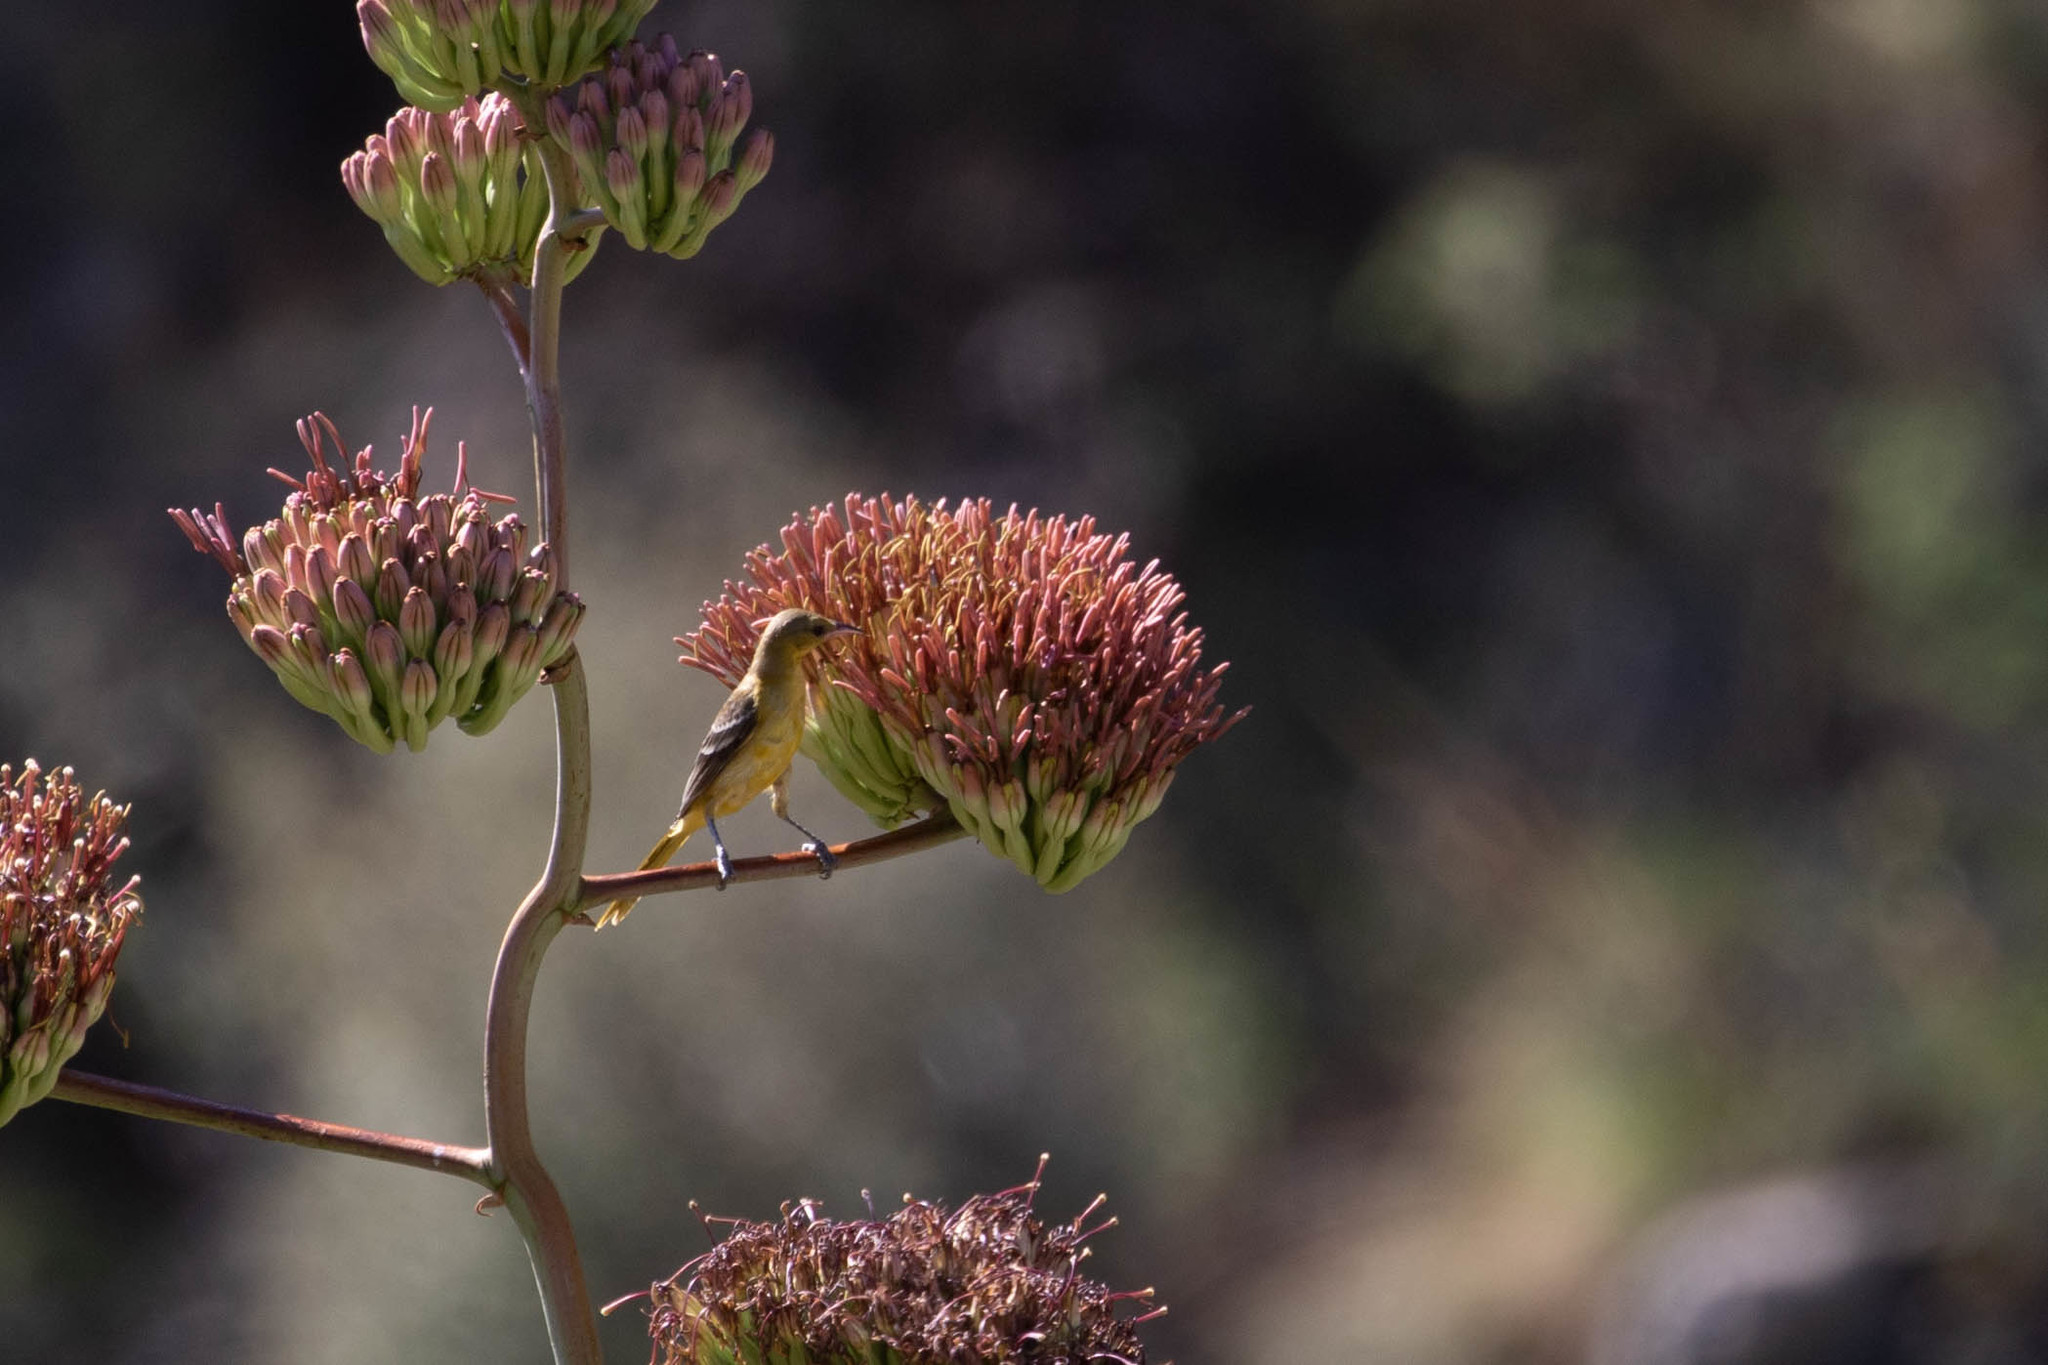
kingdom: Animalia
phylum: Chordata
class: Aves
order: Passeriformes
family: Icteridae
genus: Icterus
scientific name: Icterus cucullatus
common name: Hooded oriole
